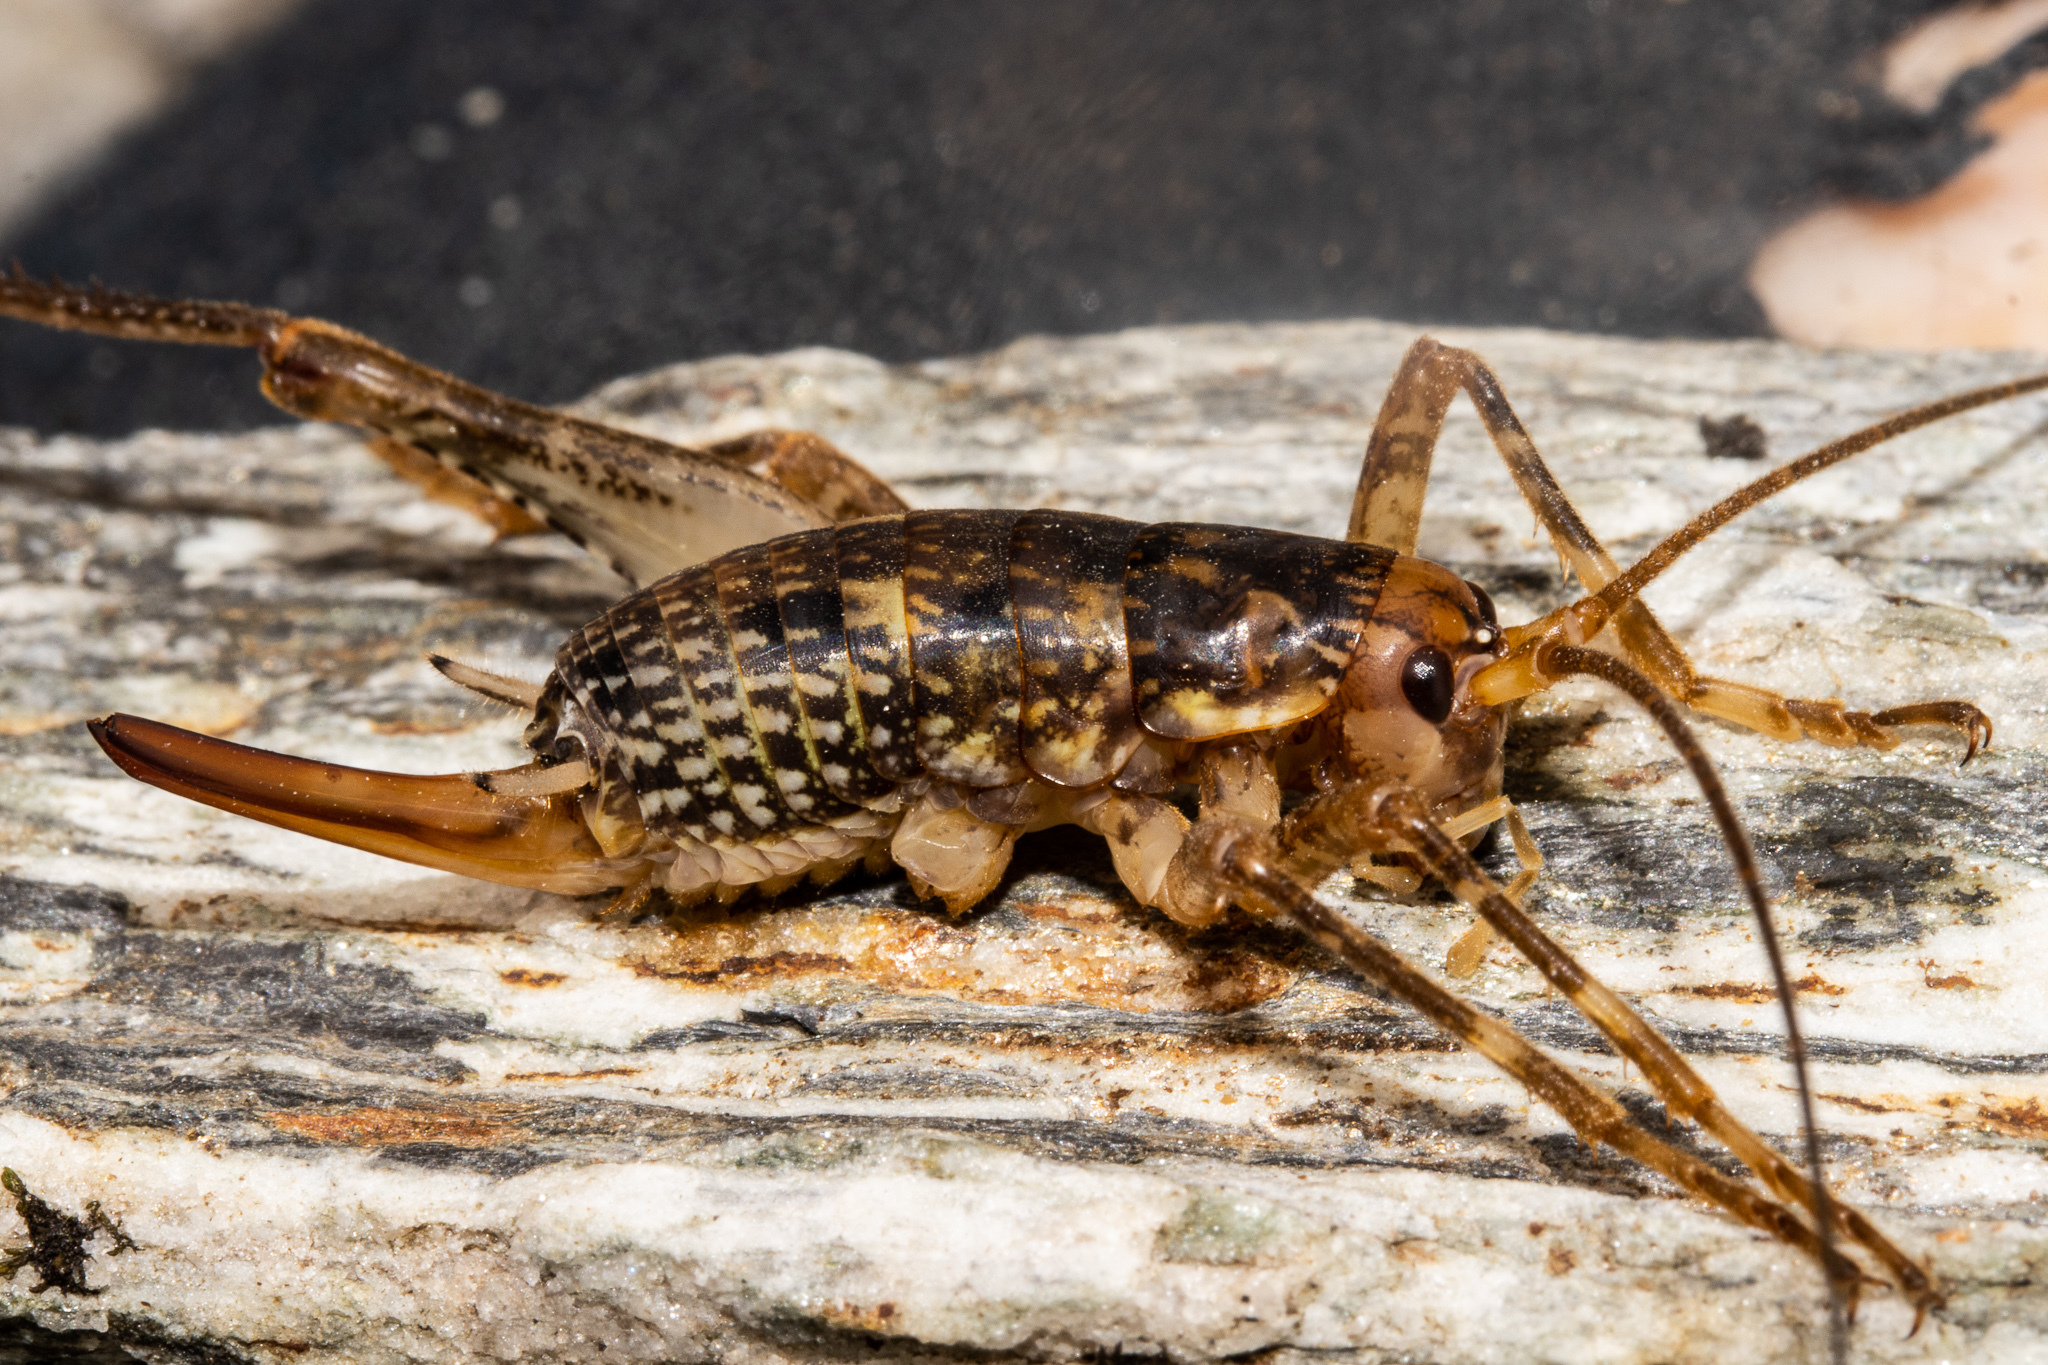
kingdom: Animalia
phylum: Arthropoda
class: Insecta
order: Orthoptera
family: Rhaphidophoridae
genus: Notoplectron
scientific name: Notoplectron brewsterensis
